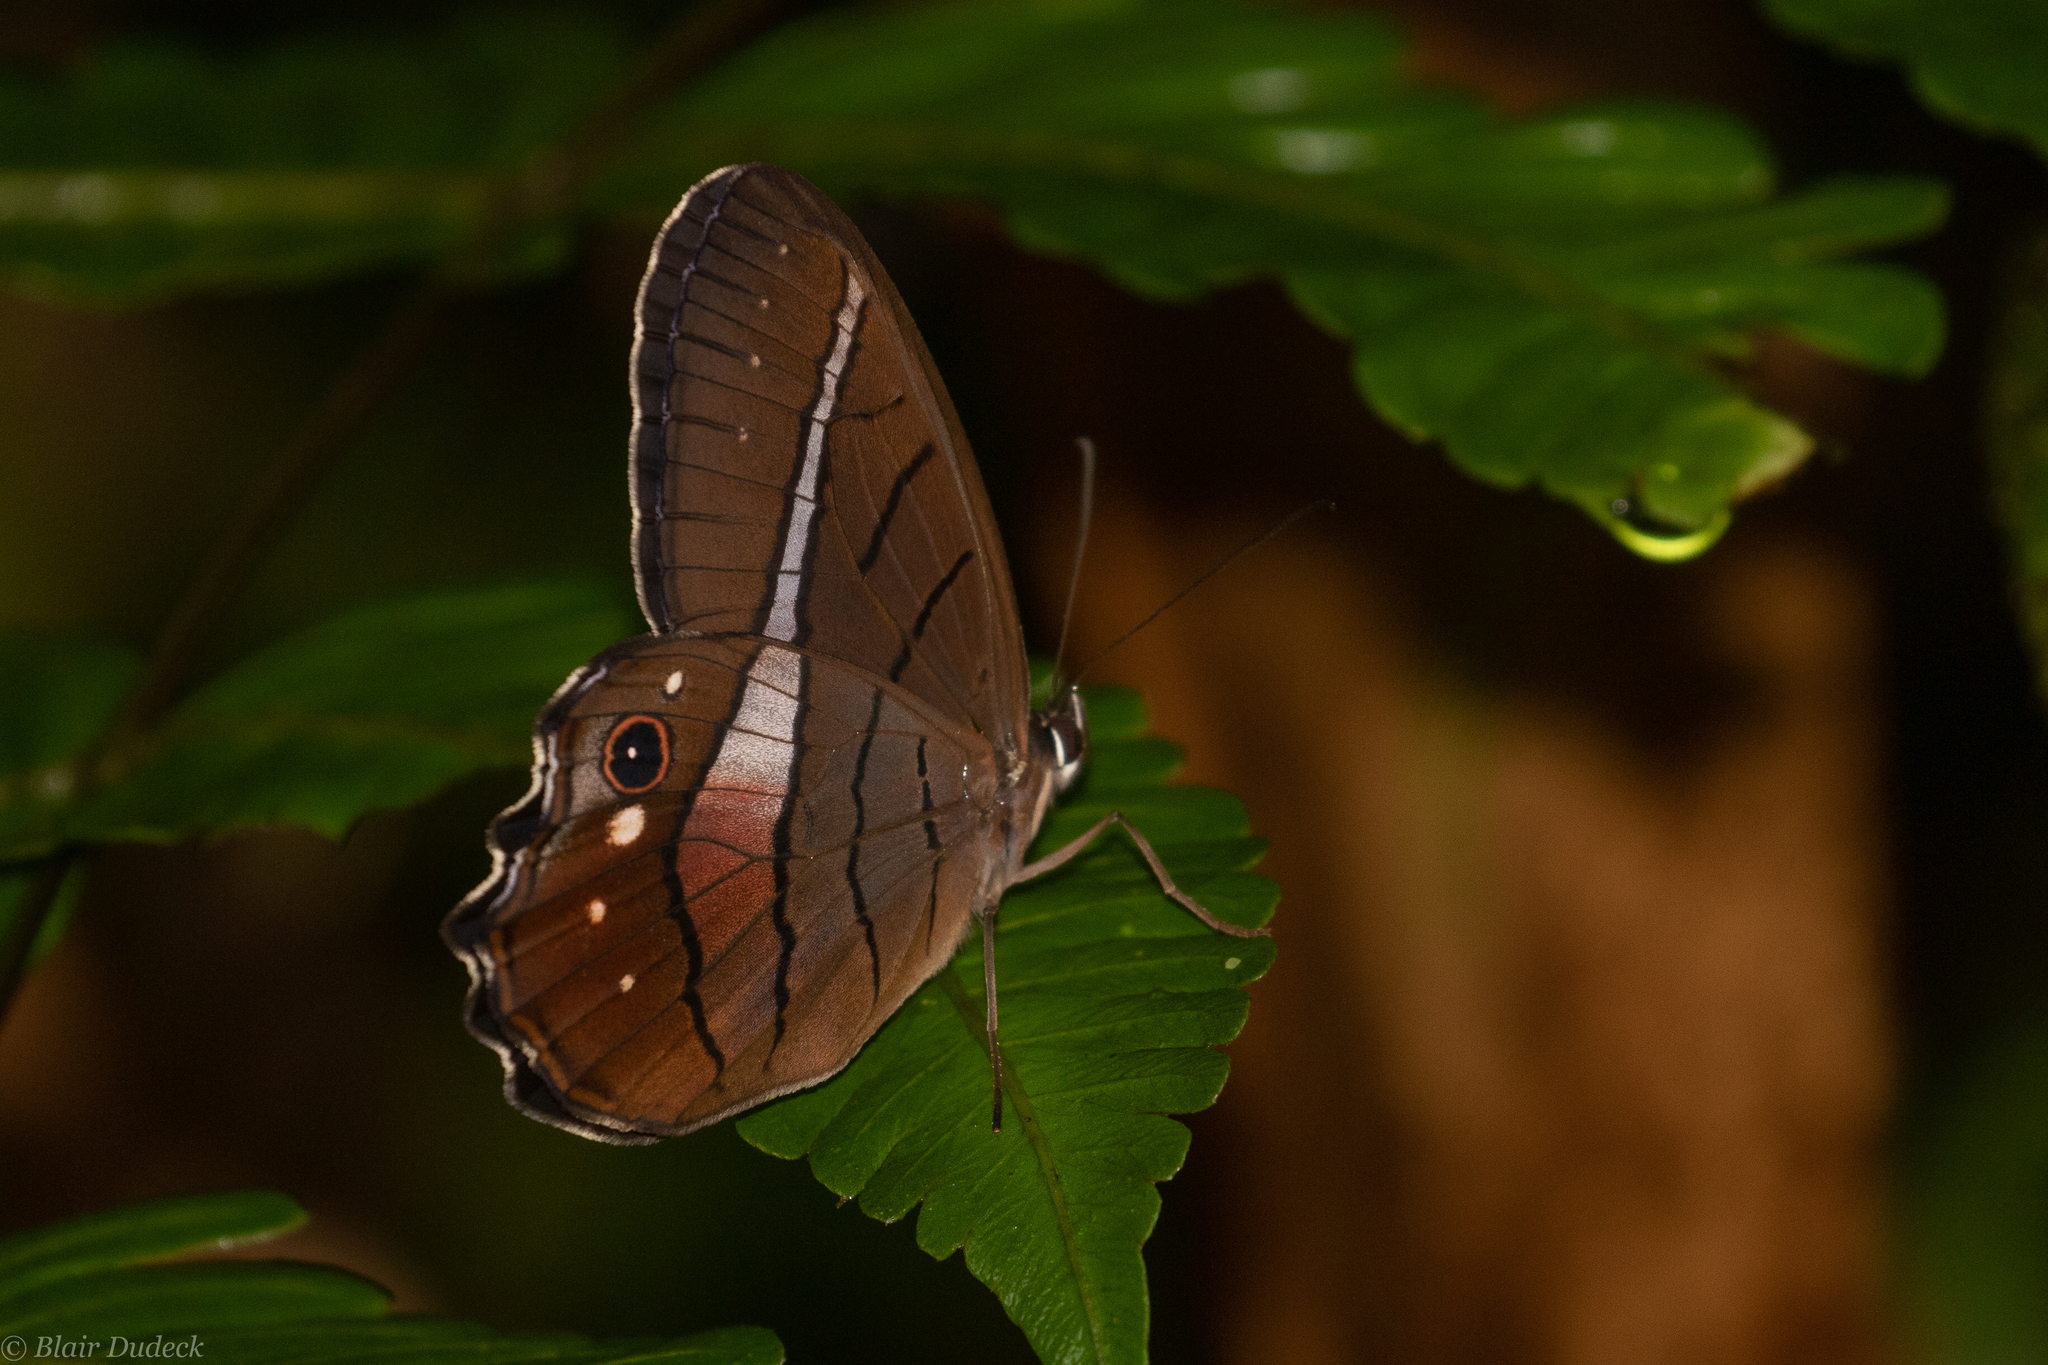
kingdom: Animalia
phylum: Arthropoda
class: Insecta
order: Lepidoptera
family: Nymphalidae
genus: Pierella
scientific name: Pierella helvina
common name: Red-washed satyr
